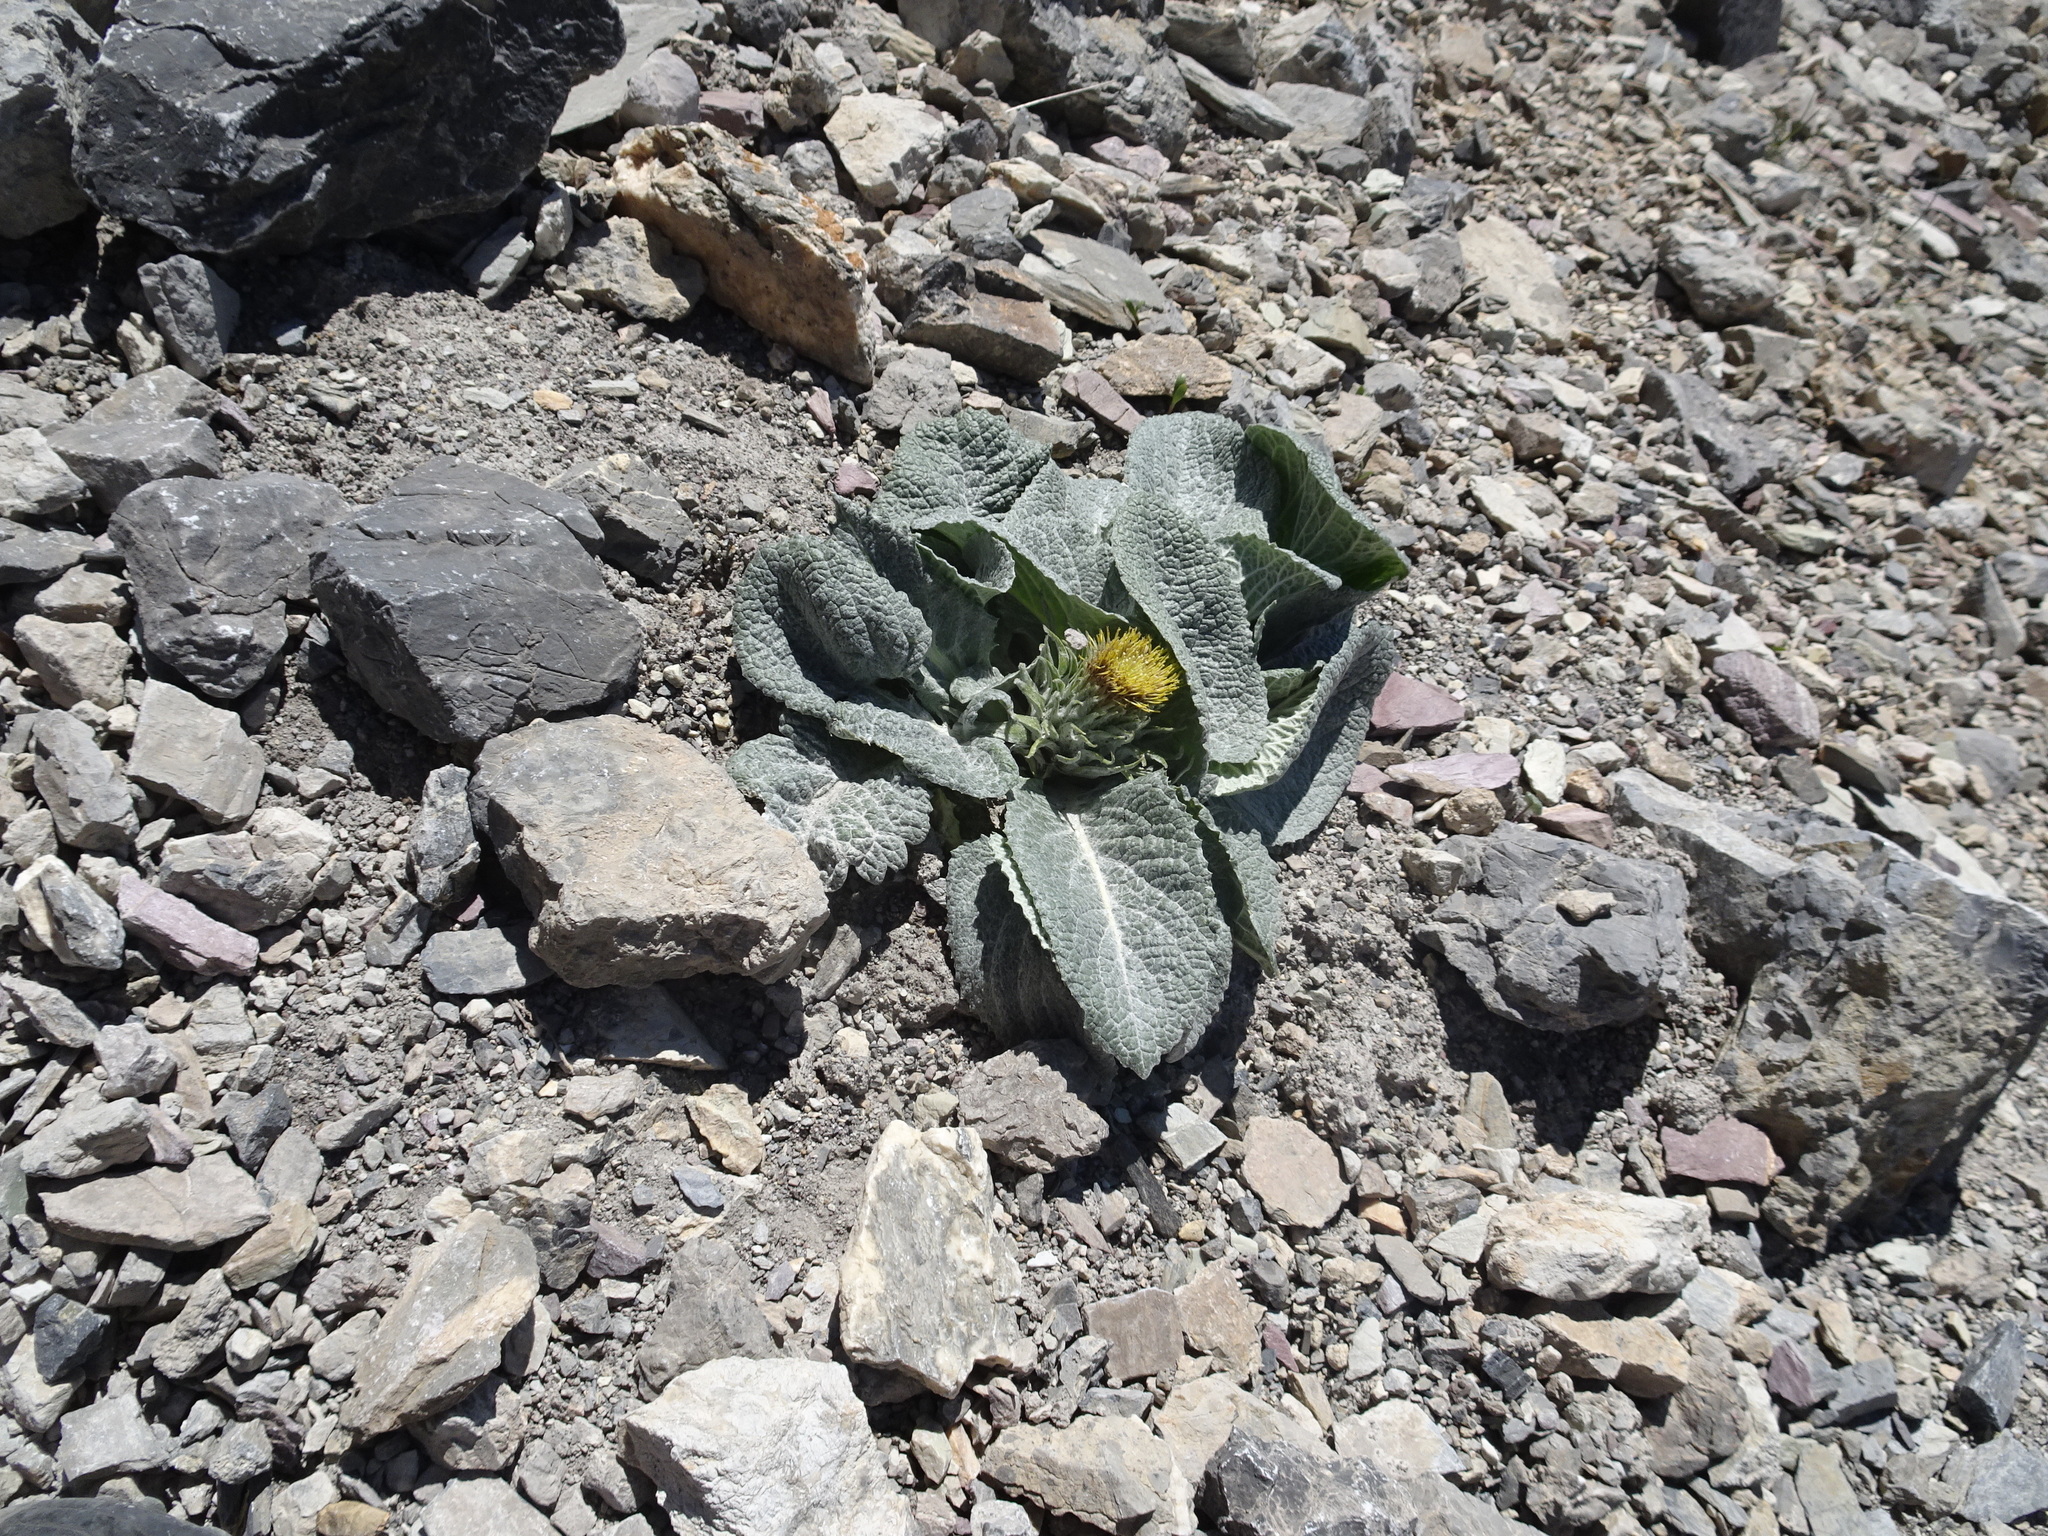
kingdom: Plantae
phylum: Tracheophyta
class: Magnoliopsida
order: Asterales
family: Asteraceae
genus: Berardia
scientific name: Berardia lanuginosa
